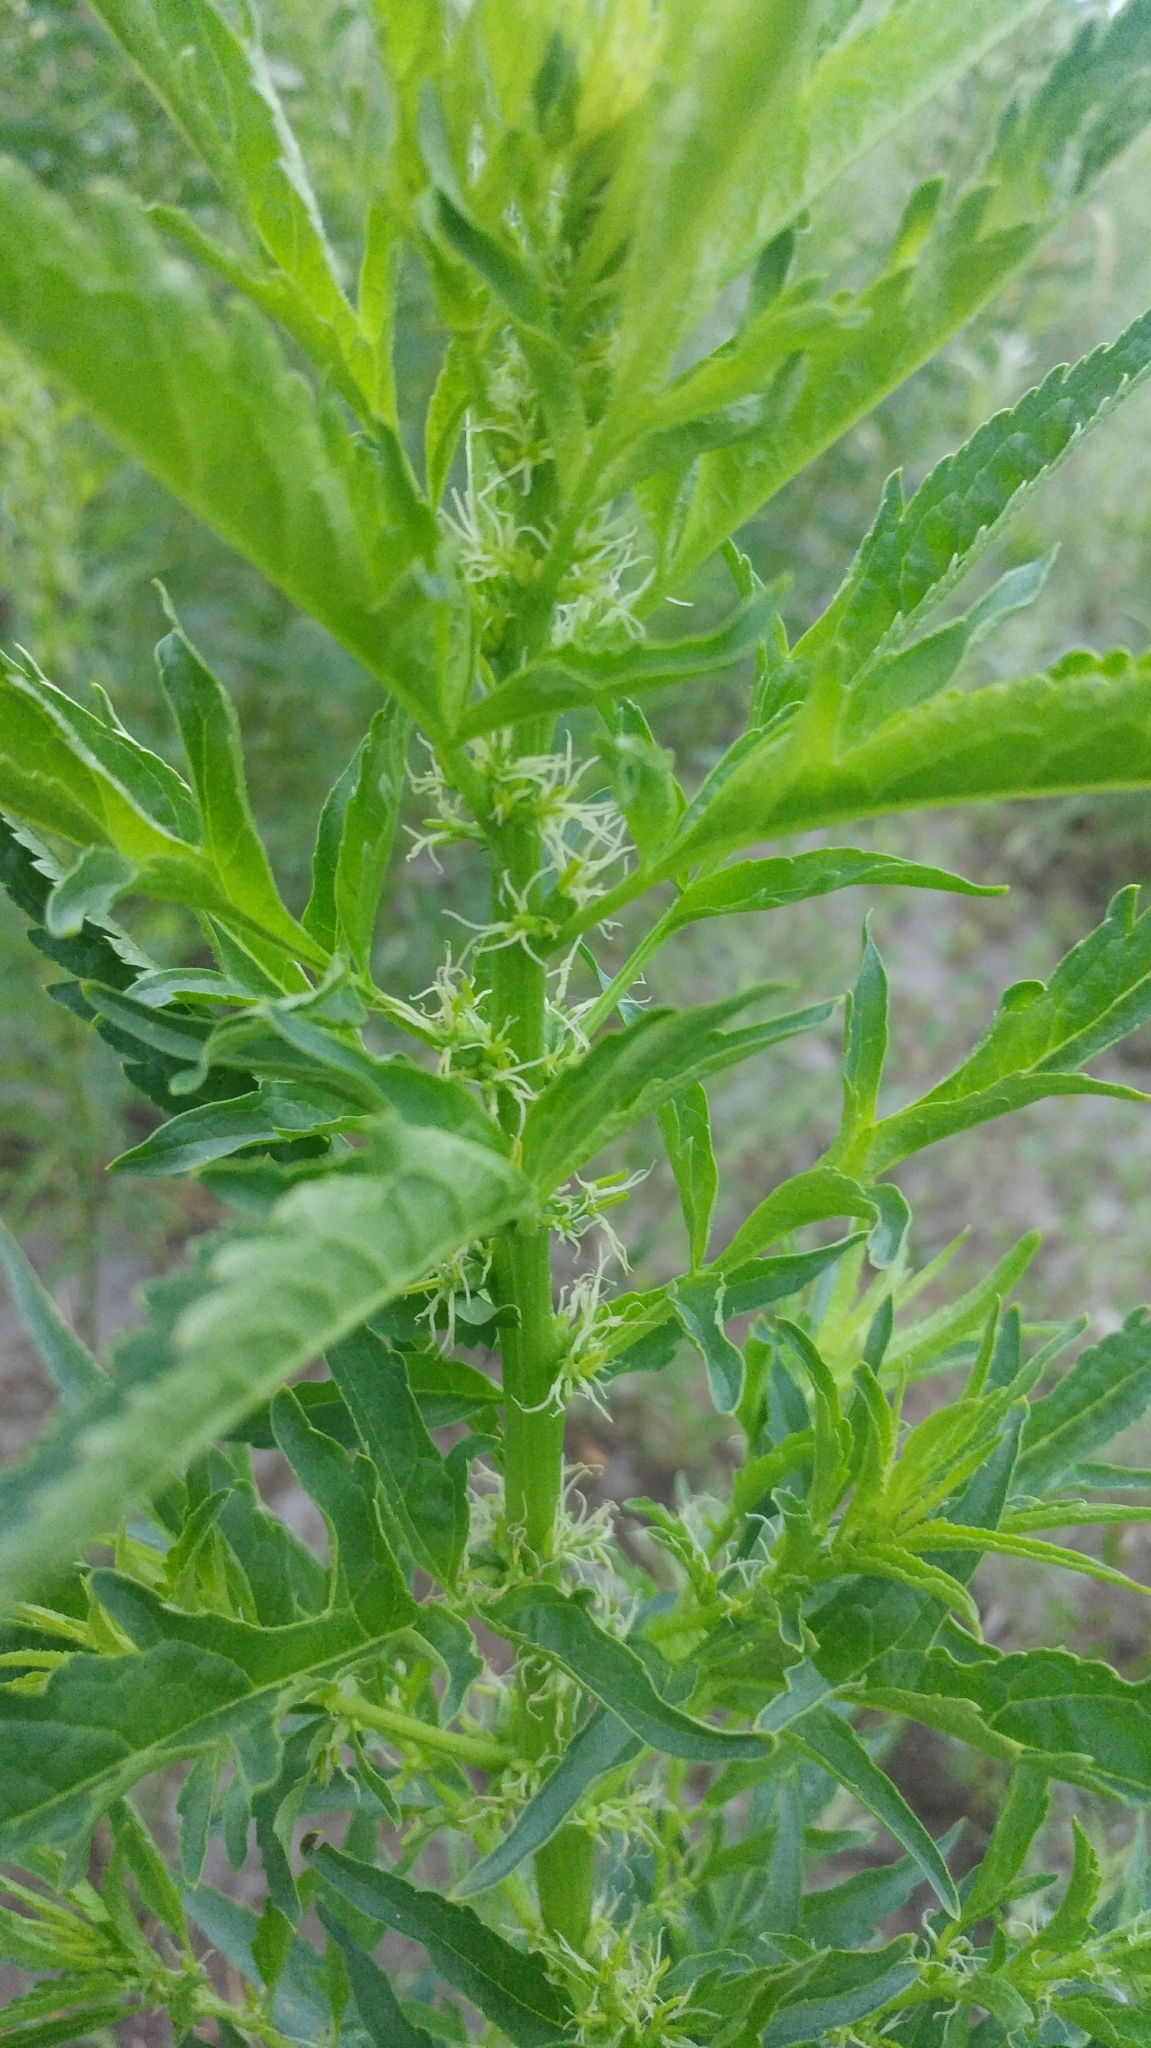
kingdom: Plantae
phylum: Tracheophyta
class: Magnoliopsida
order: Cucurbitales
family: Datiscaceae
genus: Datisca
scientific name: Datisca glomerata
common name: Durango-root
